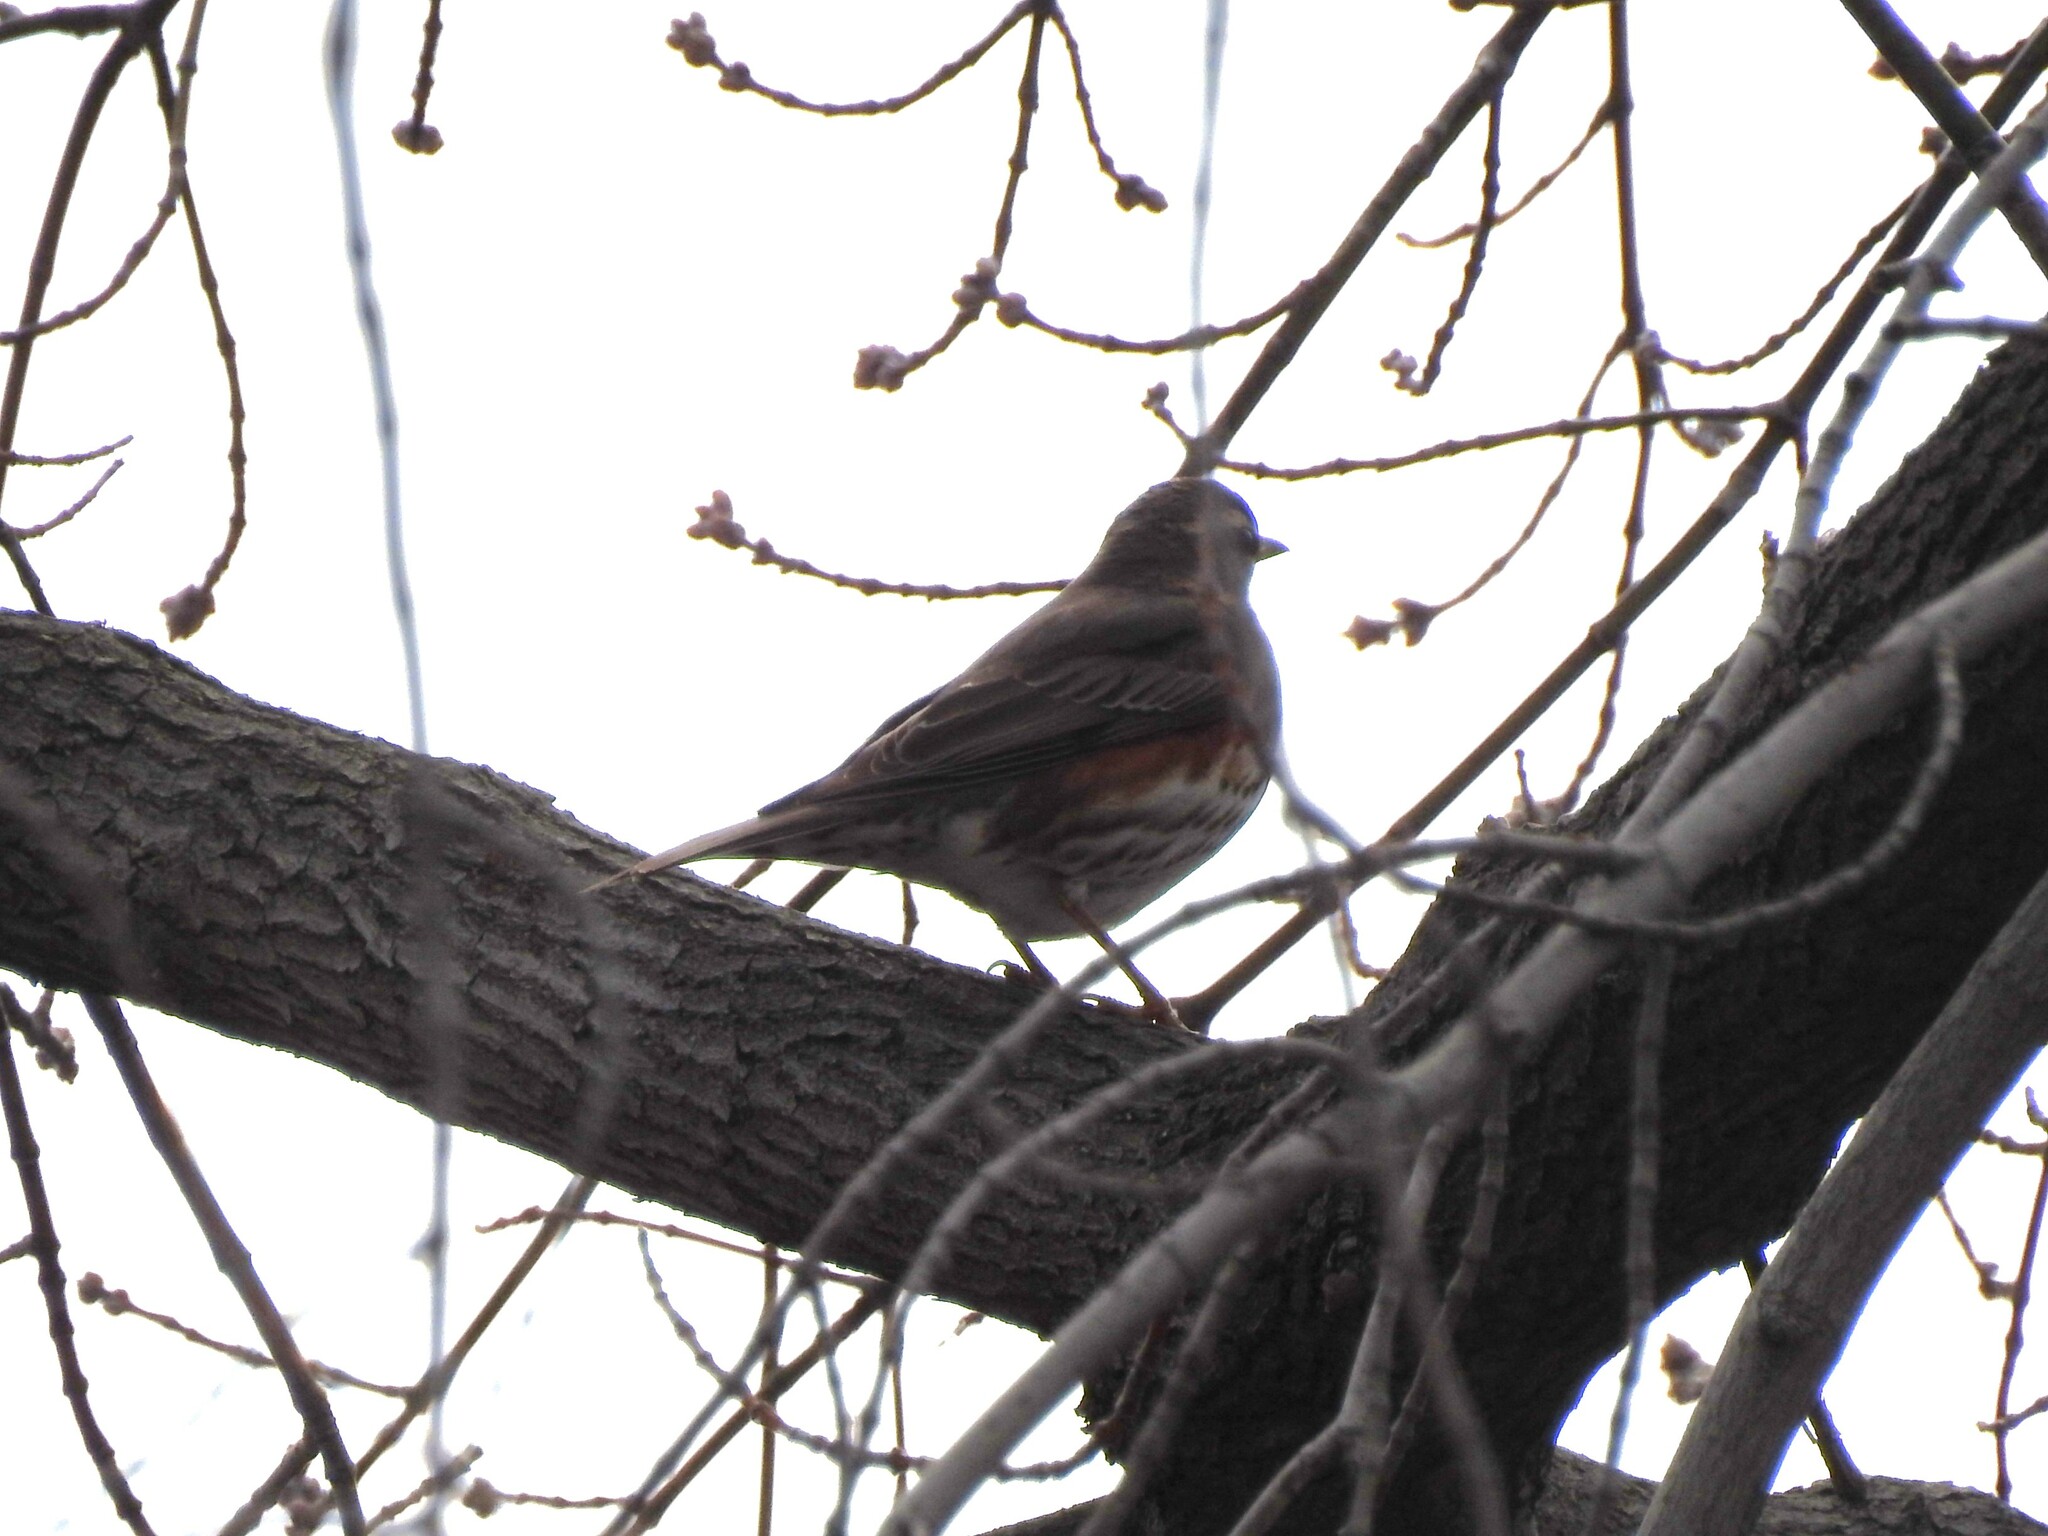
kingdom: Animalia
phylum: Chordata
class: Aves
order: Passeriformes
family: Turdidae
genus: Turdus
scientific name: Turdus iliacus
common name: Redwing
